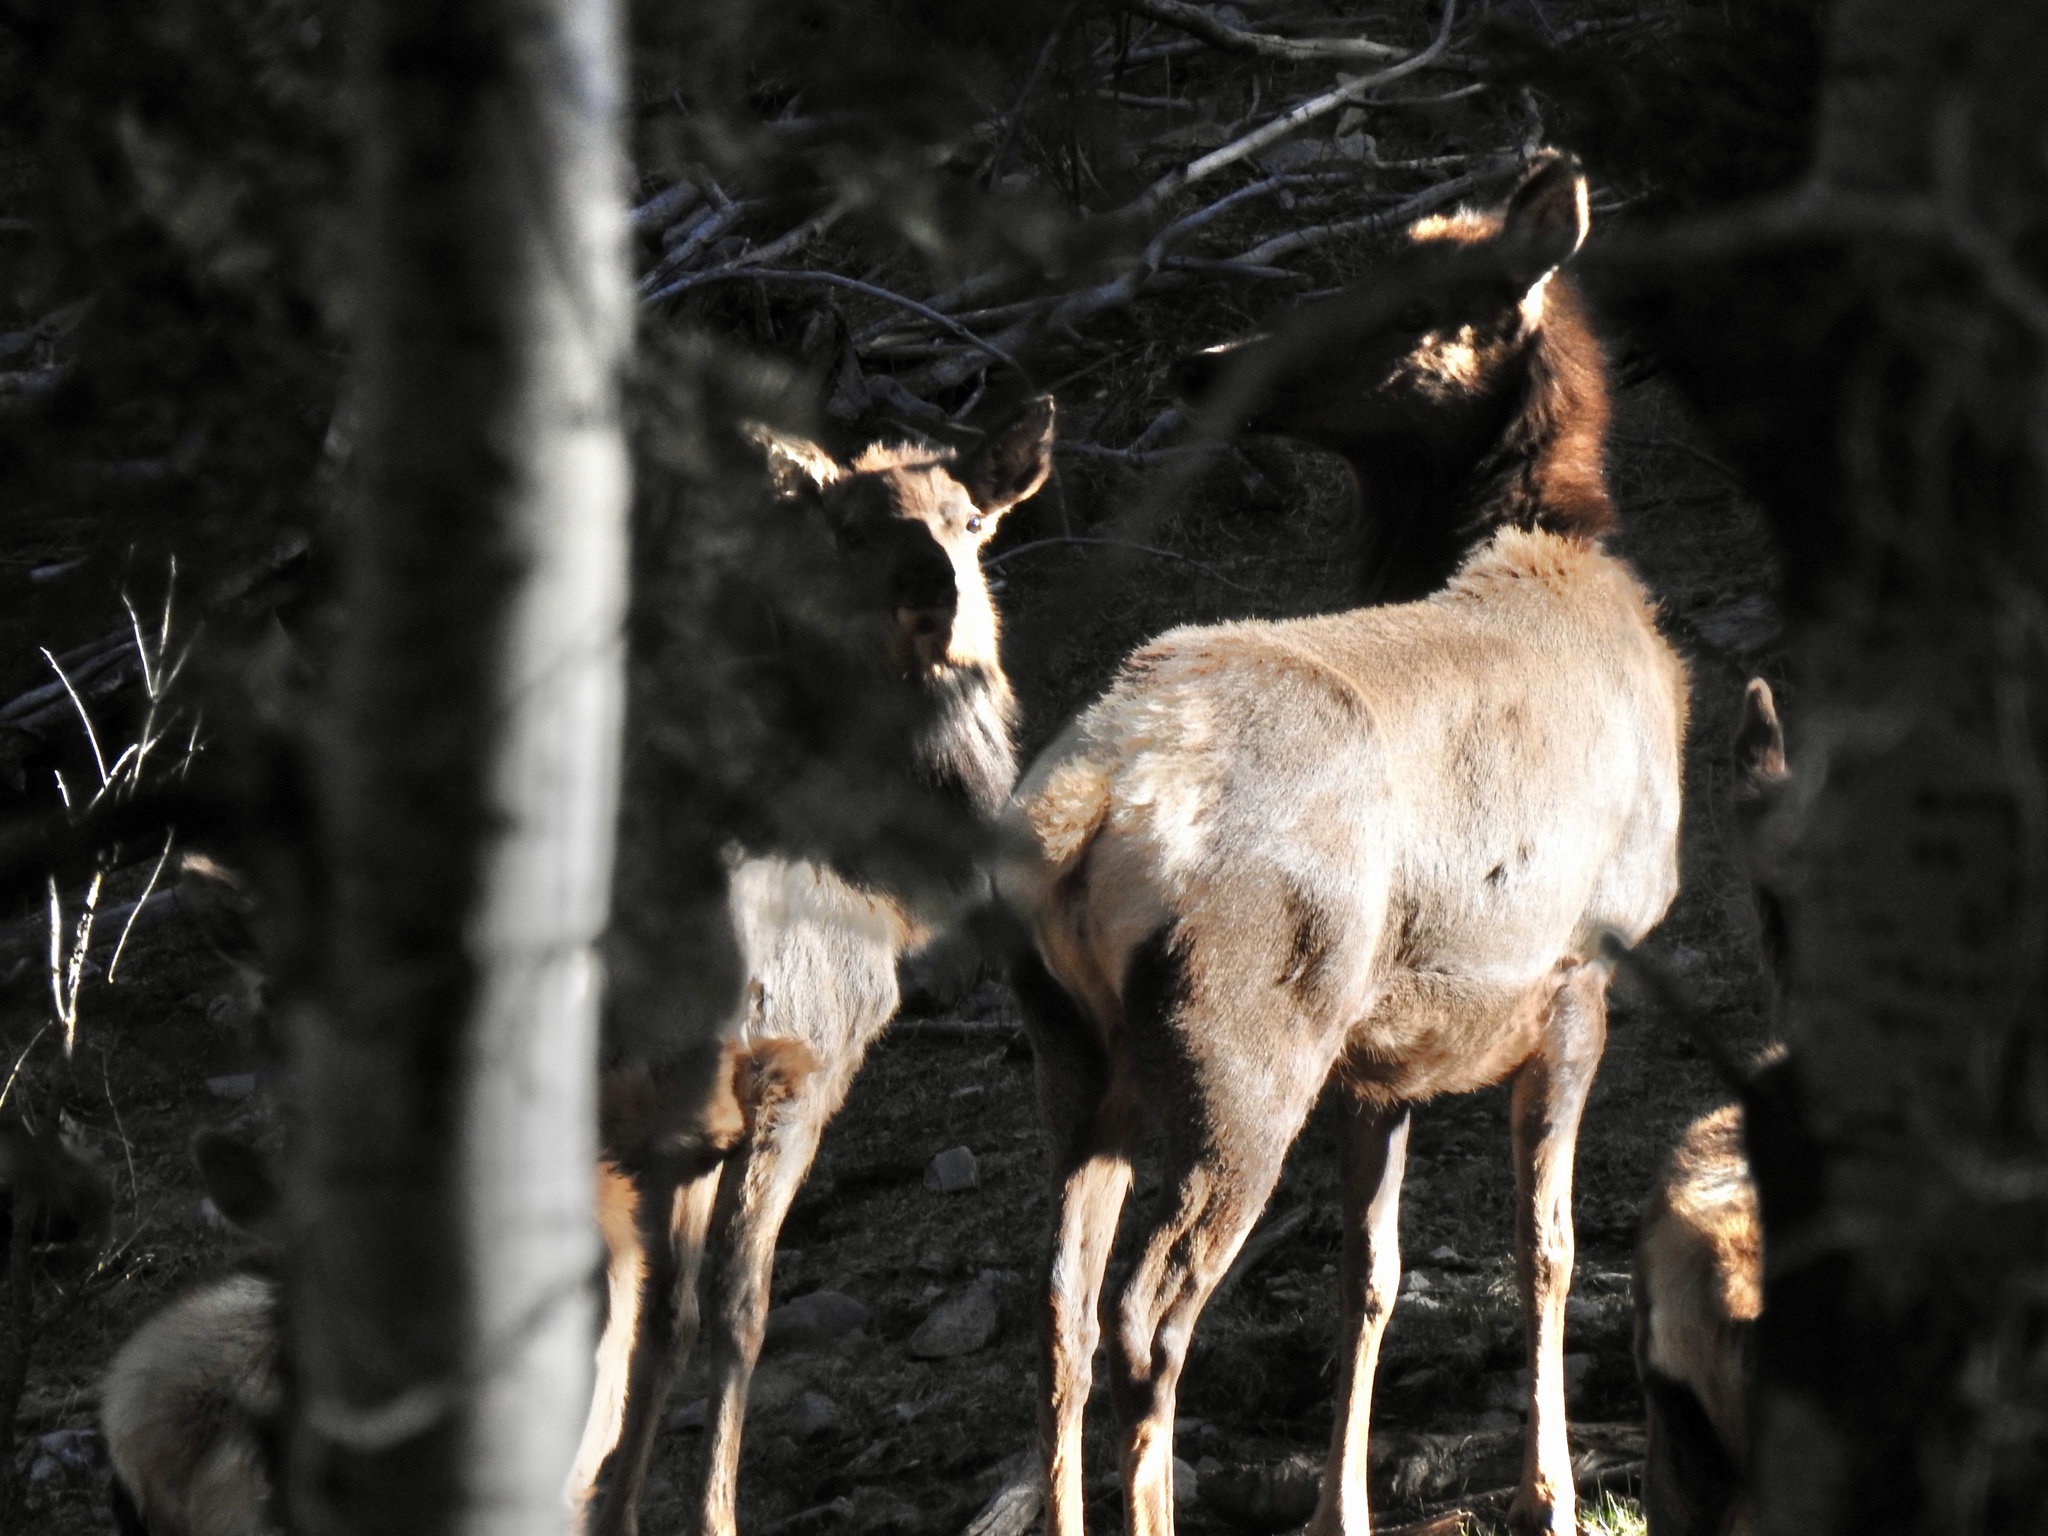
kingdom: Animalia
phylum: Chordata
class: Mammalia
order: Artiodactyla
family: Cervidae
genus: Cervus
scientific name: Cervus elaphus
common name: Red deer
